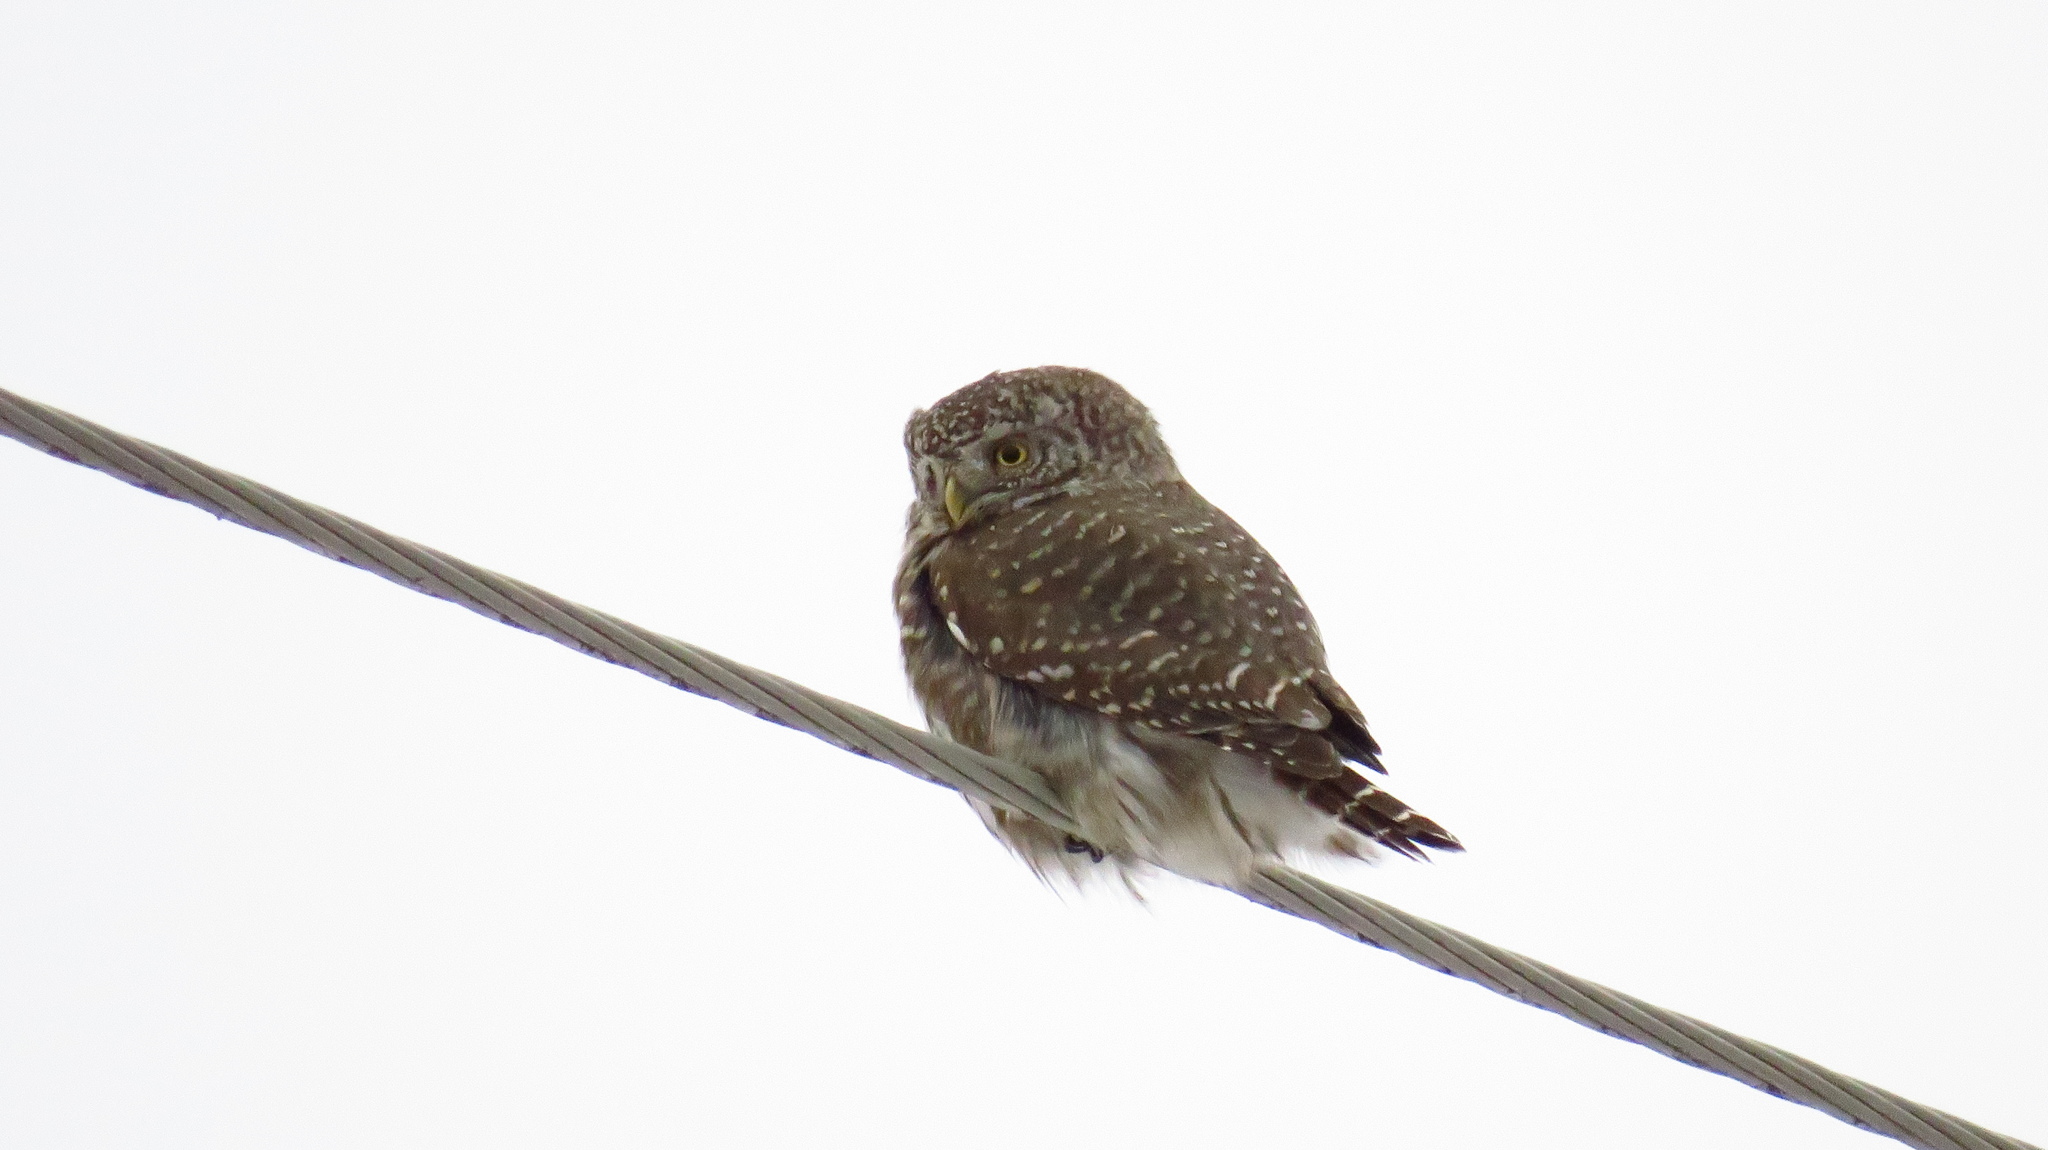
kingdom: Animalia
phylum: Chordata
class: Aves
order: Strigiformes
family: Strigidae
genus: Glaucidium
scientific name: Glaucidium passerinum
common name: Eurasian pygmy owl
